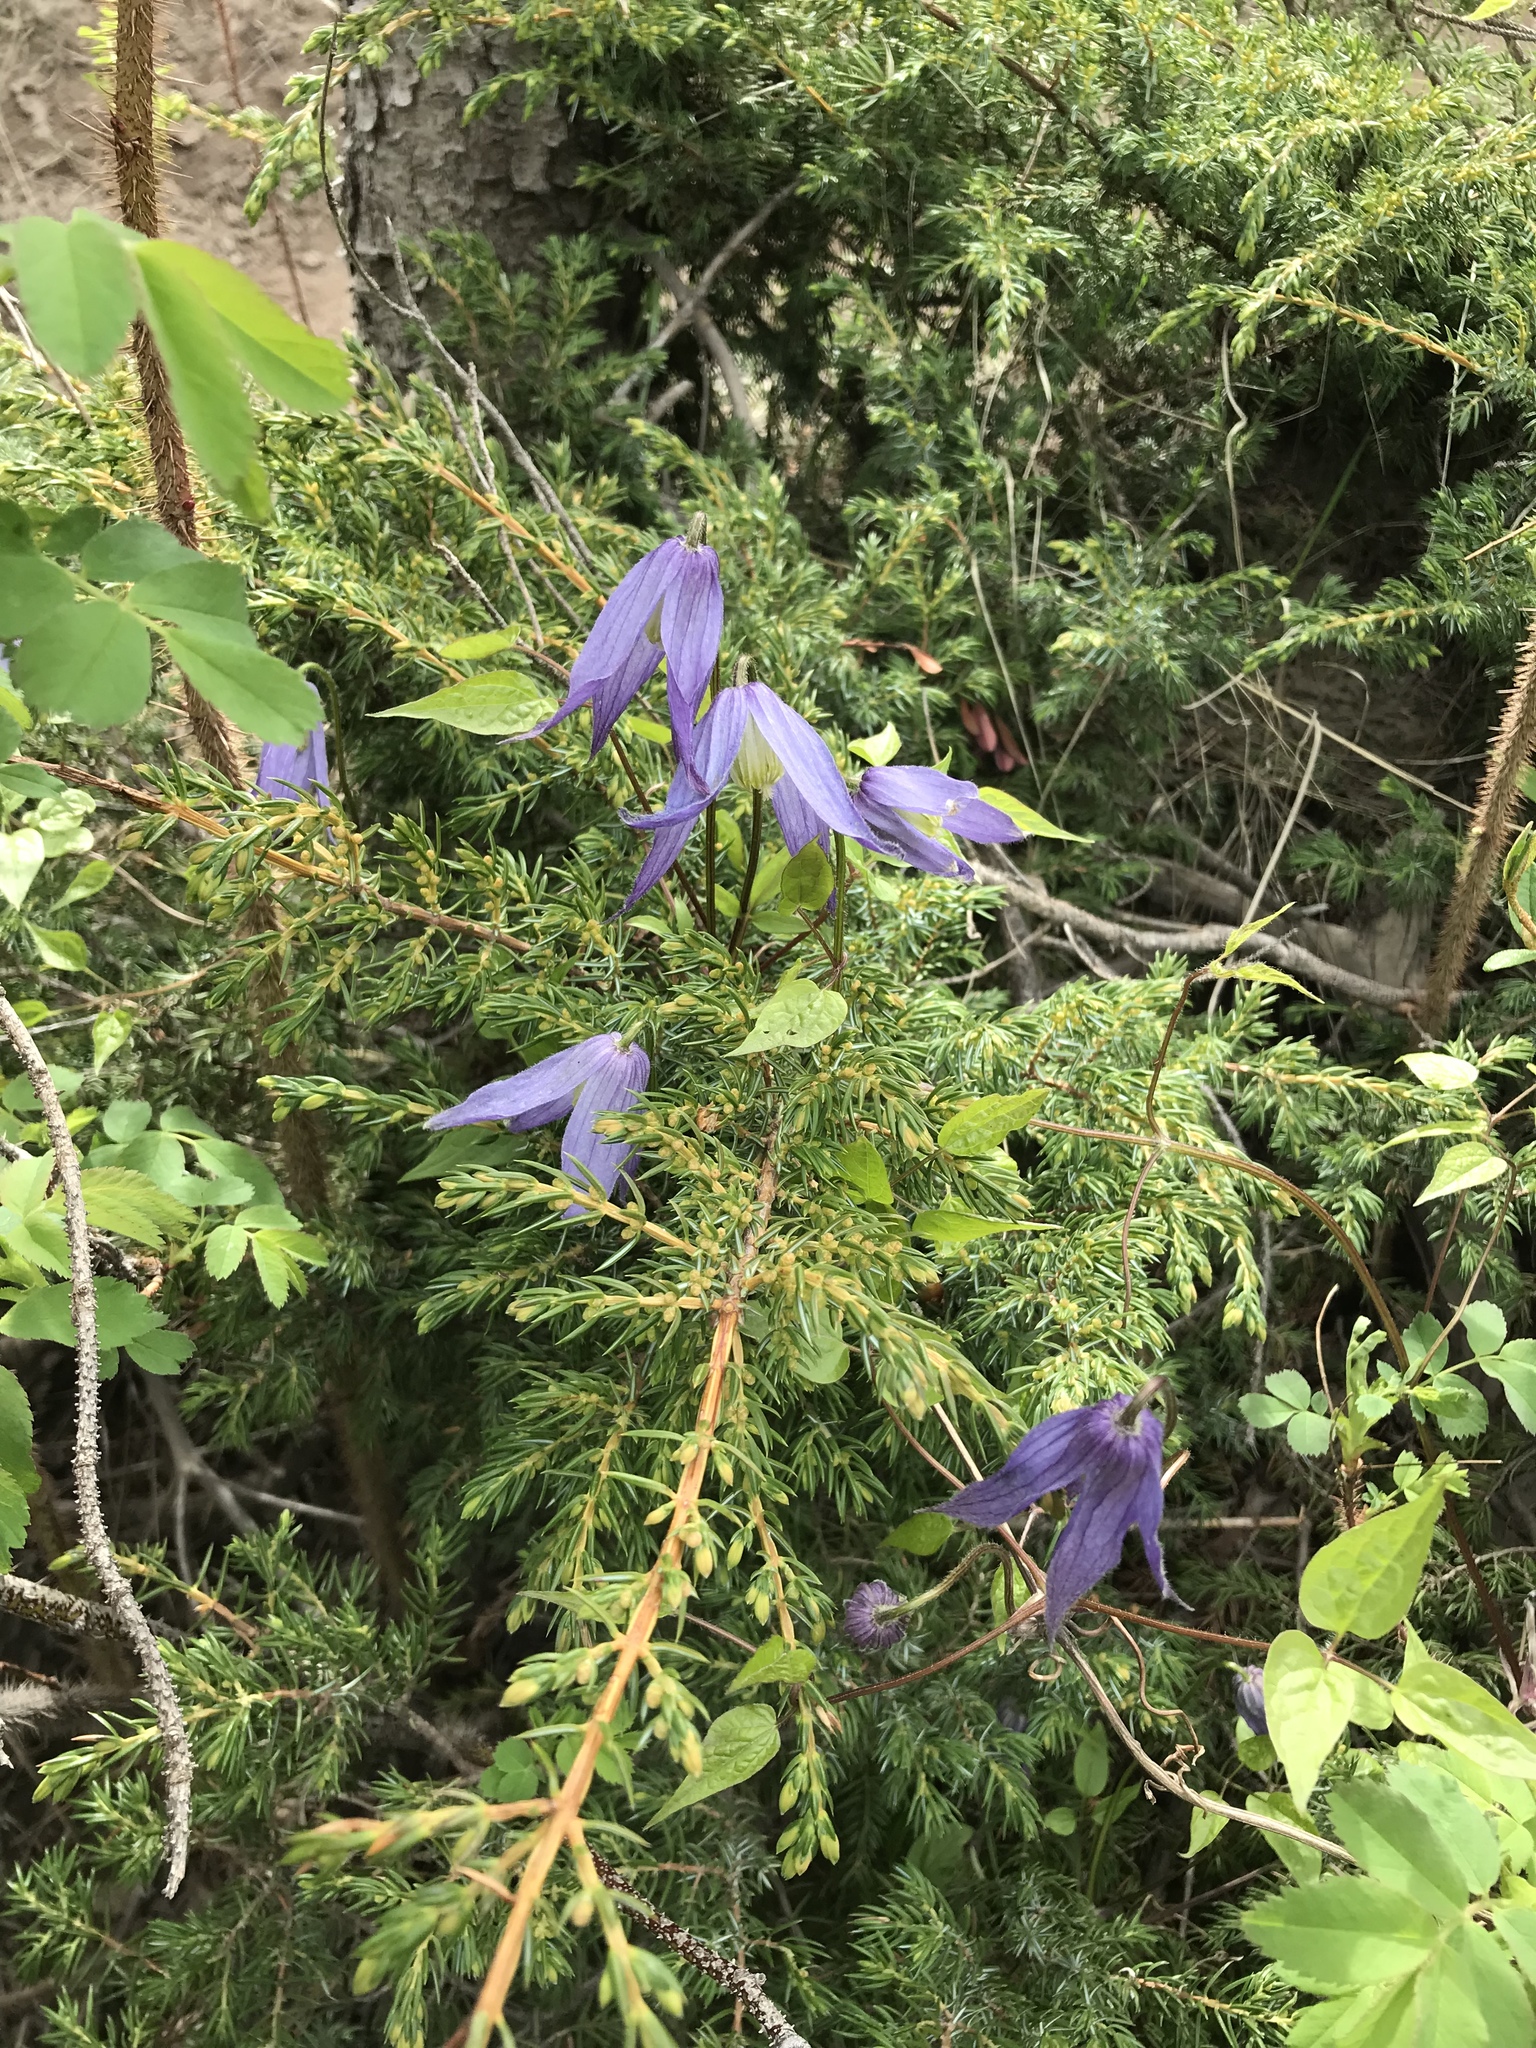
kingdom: Plantae
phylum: Tracheophyta
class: Magnoliopsida
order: Ranunculales
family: Ranunculaceae
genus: Clematis
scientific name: Clematis occidentalis
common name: Purple clematis
